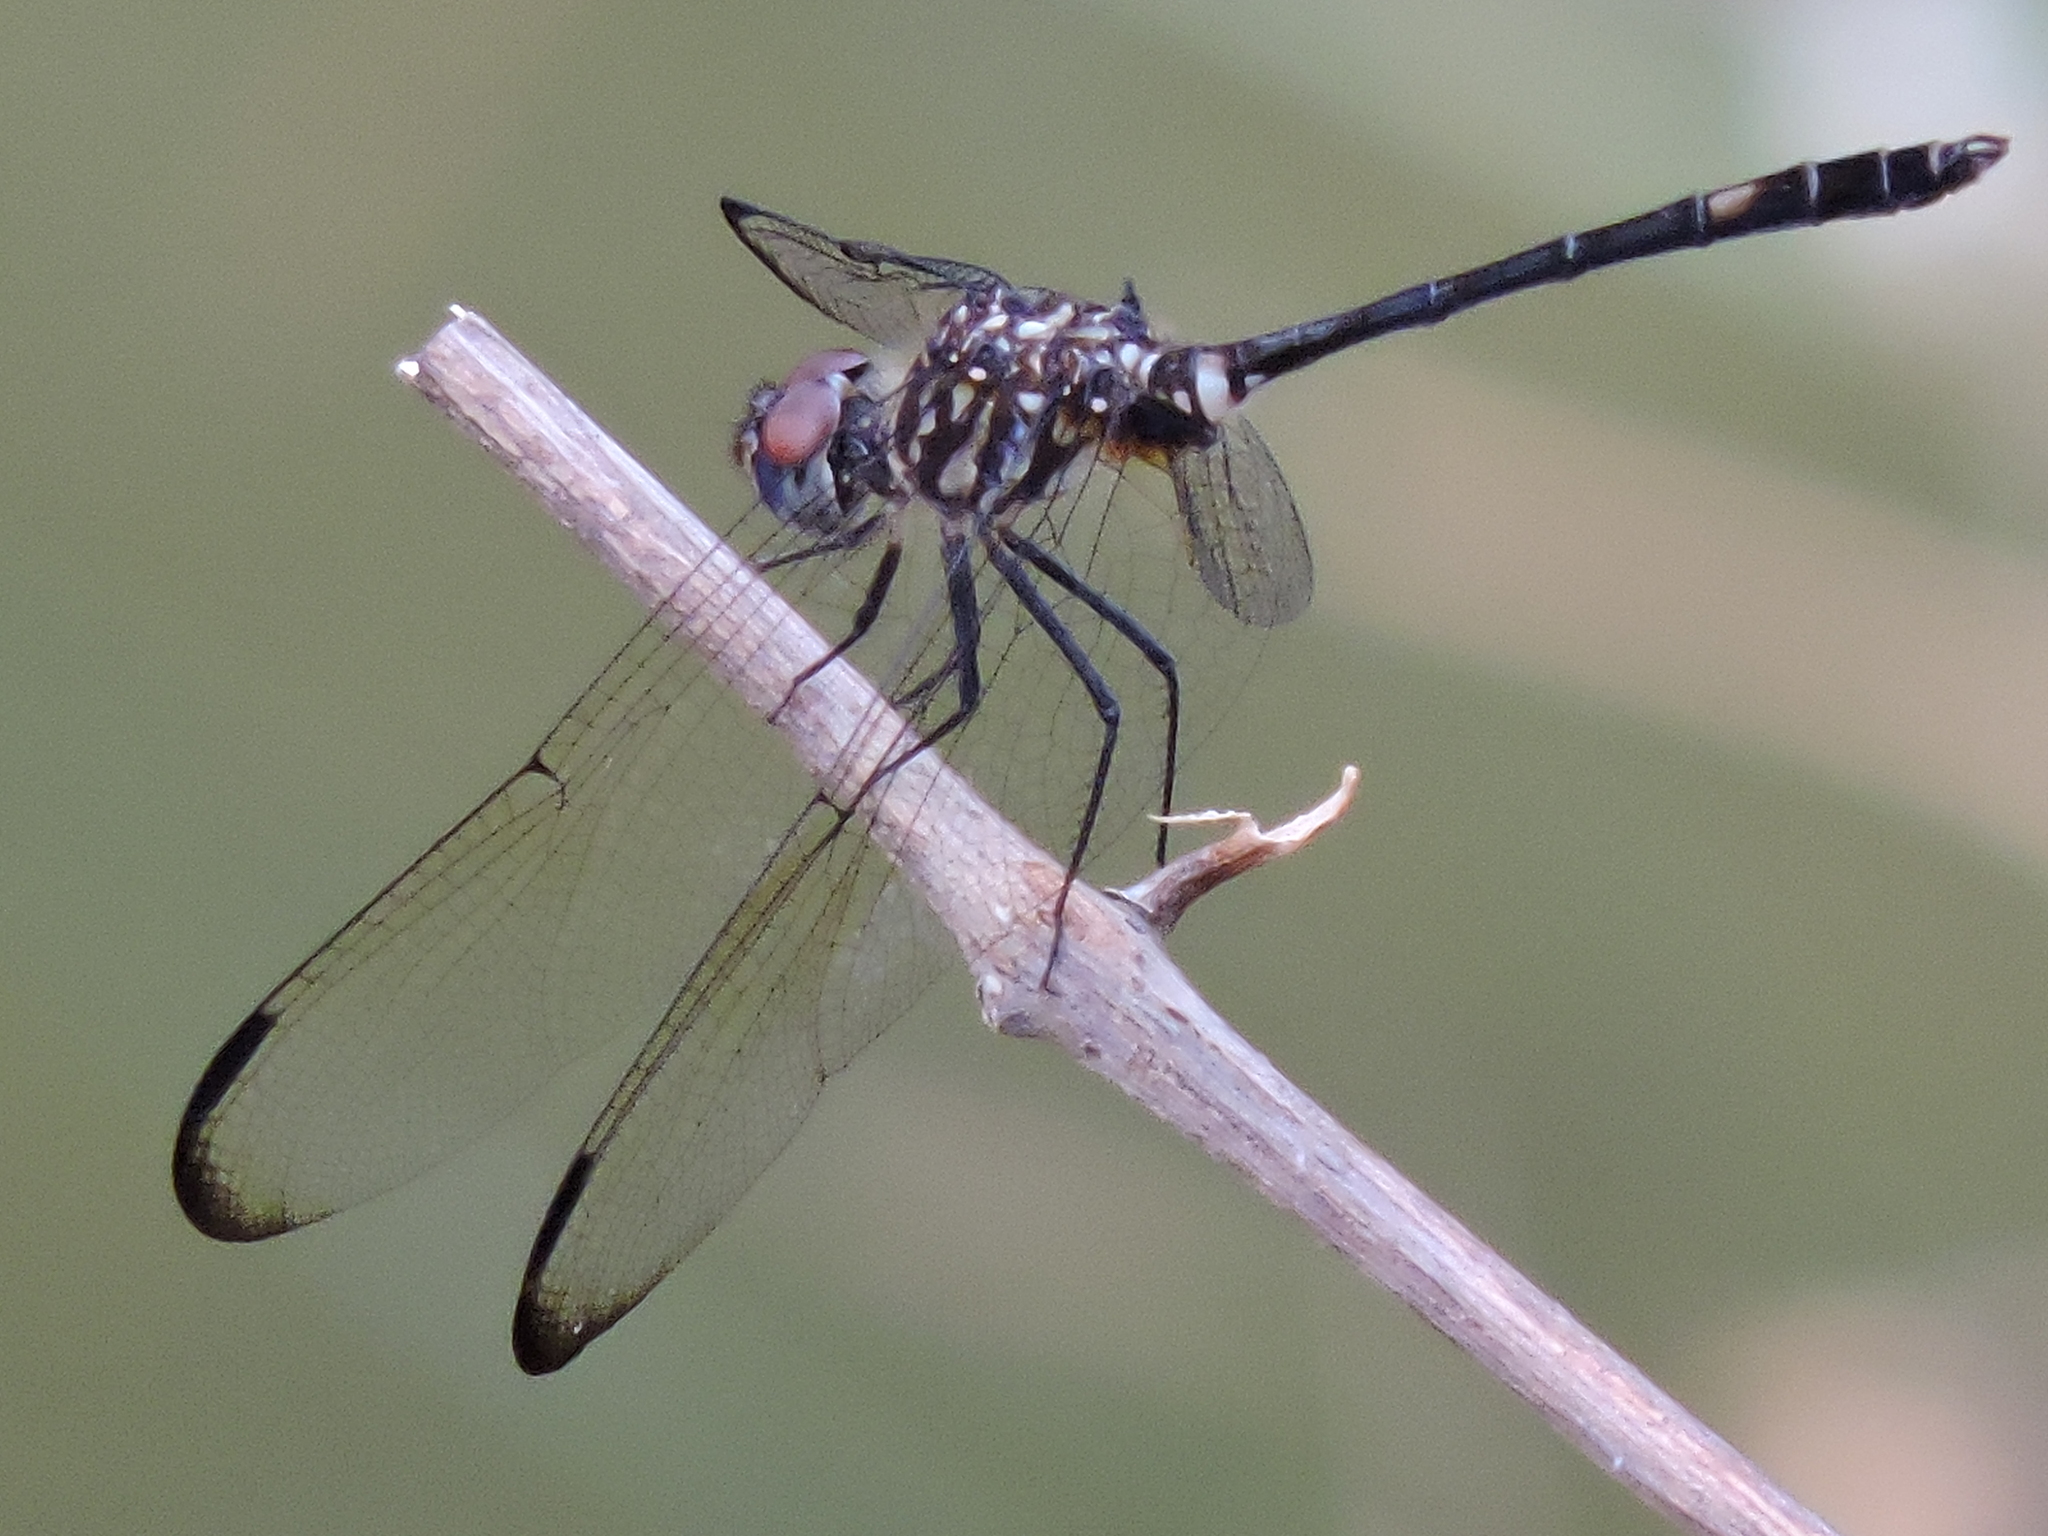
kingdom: Animalia
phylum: Arthropoda
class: Insecta
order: Odonata
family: Libellulidae
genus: Dythemis
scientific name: Dythemis velox
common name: Swift setwing
